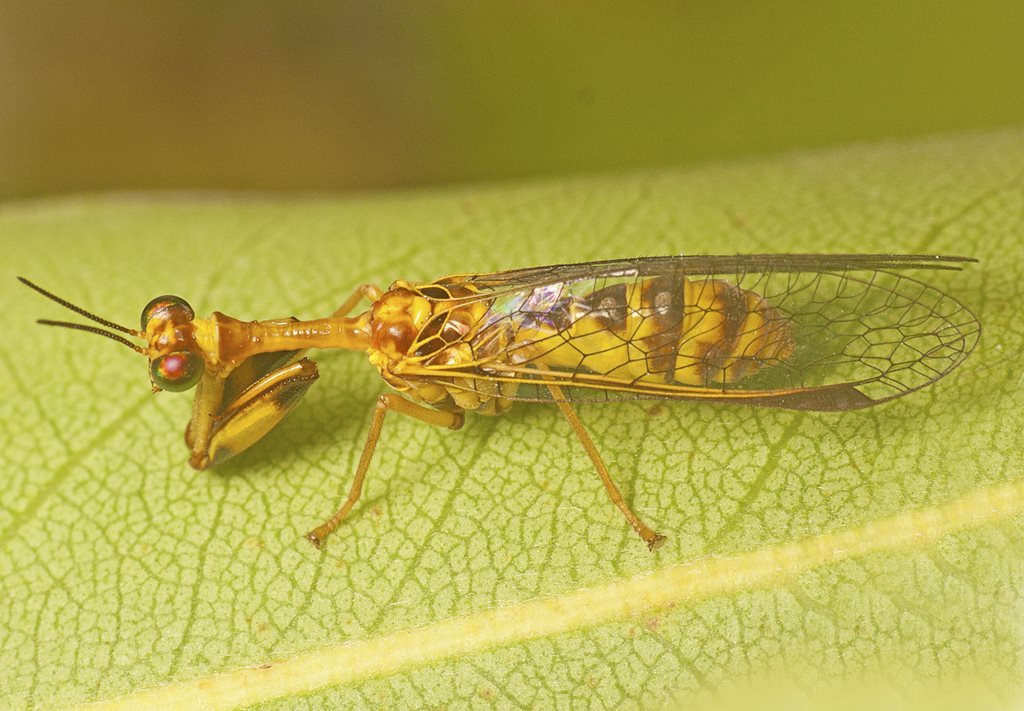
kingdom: Animalia
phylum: Arthropoda
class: Insecta
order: Neuroptera
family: Mantispidae
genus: Spaminta
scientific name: Spaminta minjerribae
